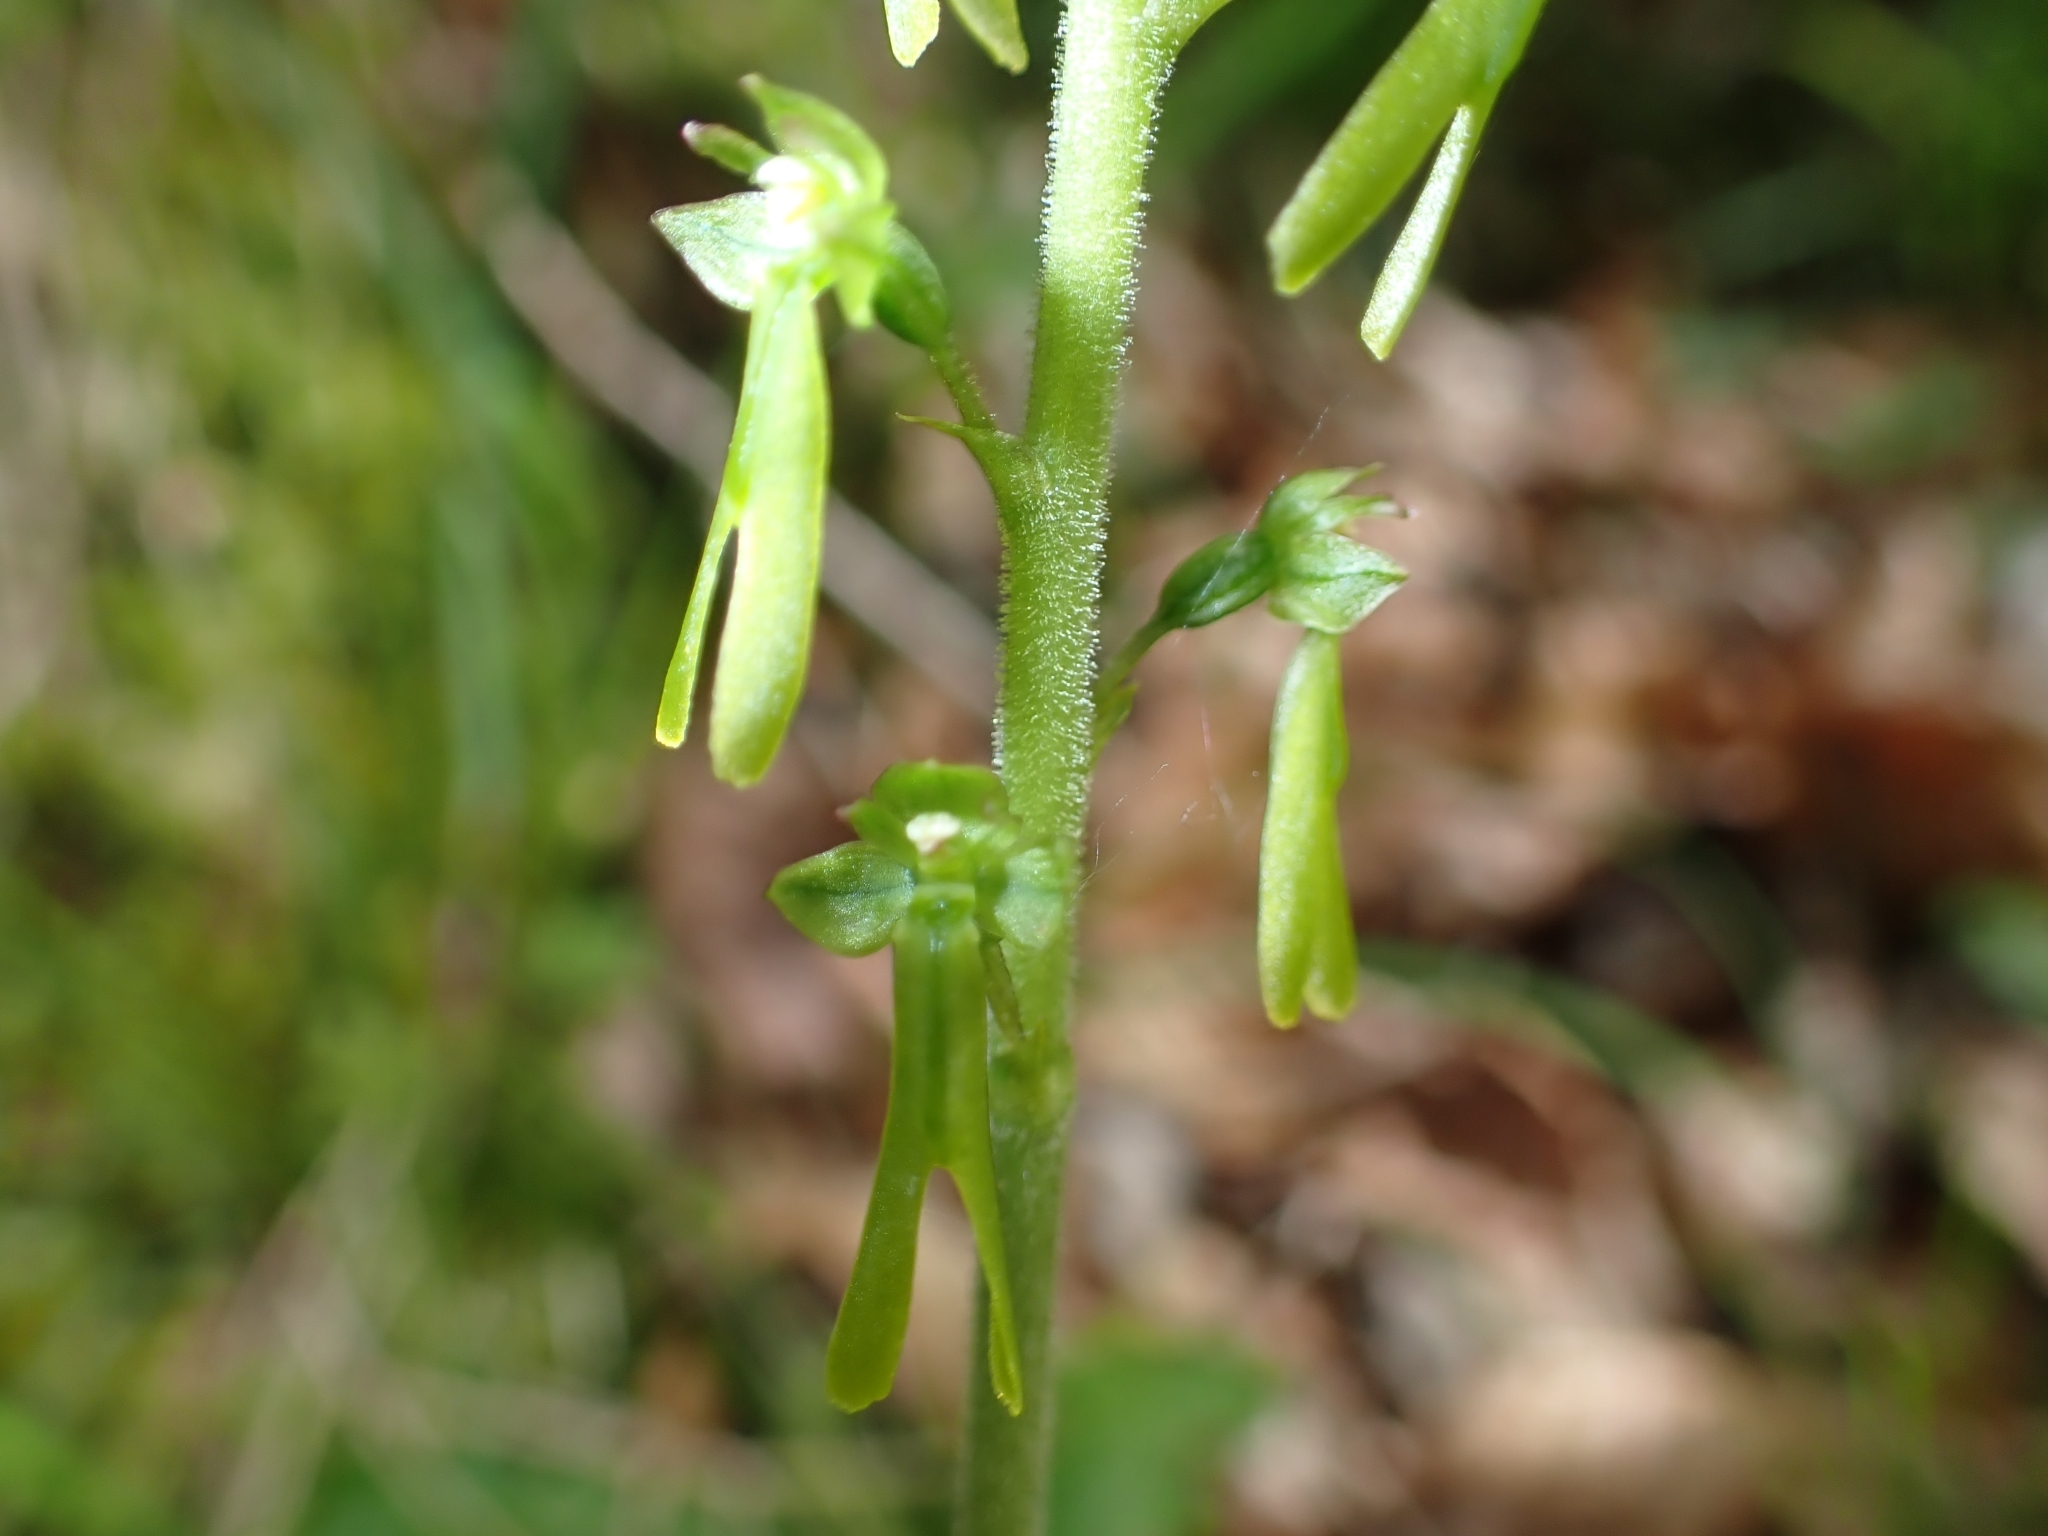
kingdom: Plantae
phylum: Tracheophyta
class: Liliopsida
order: Asparagales
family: Orchidaceae
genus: Neottia
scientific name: Neottia ovata
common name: Common twayblade
